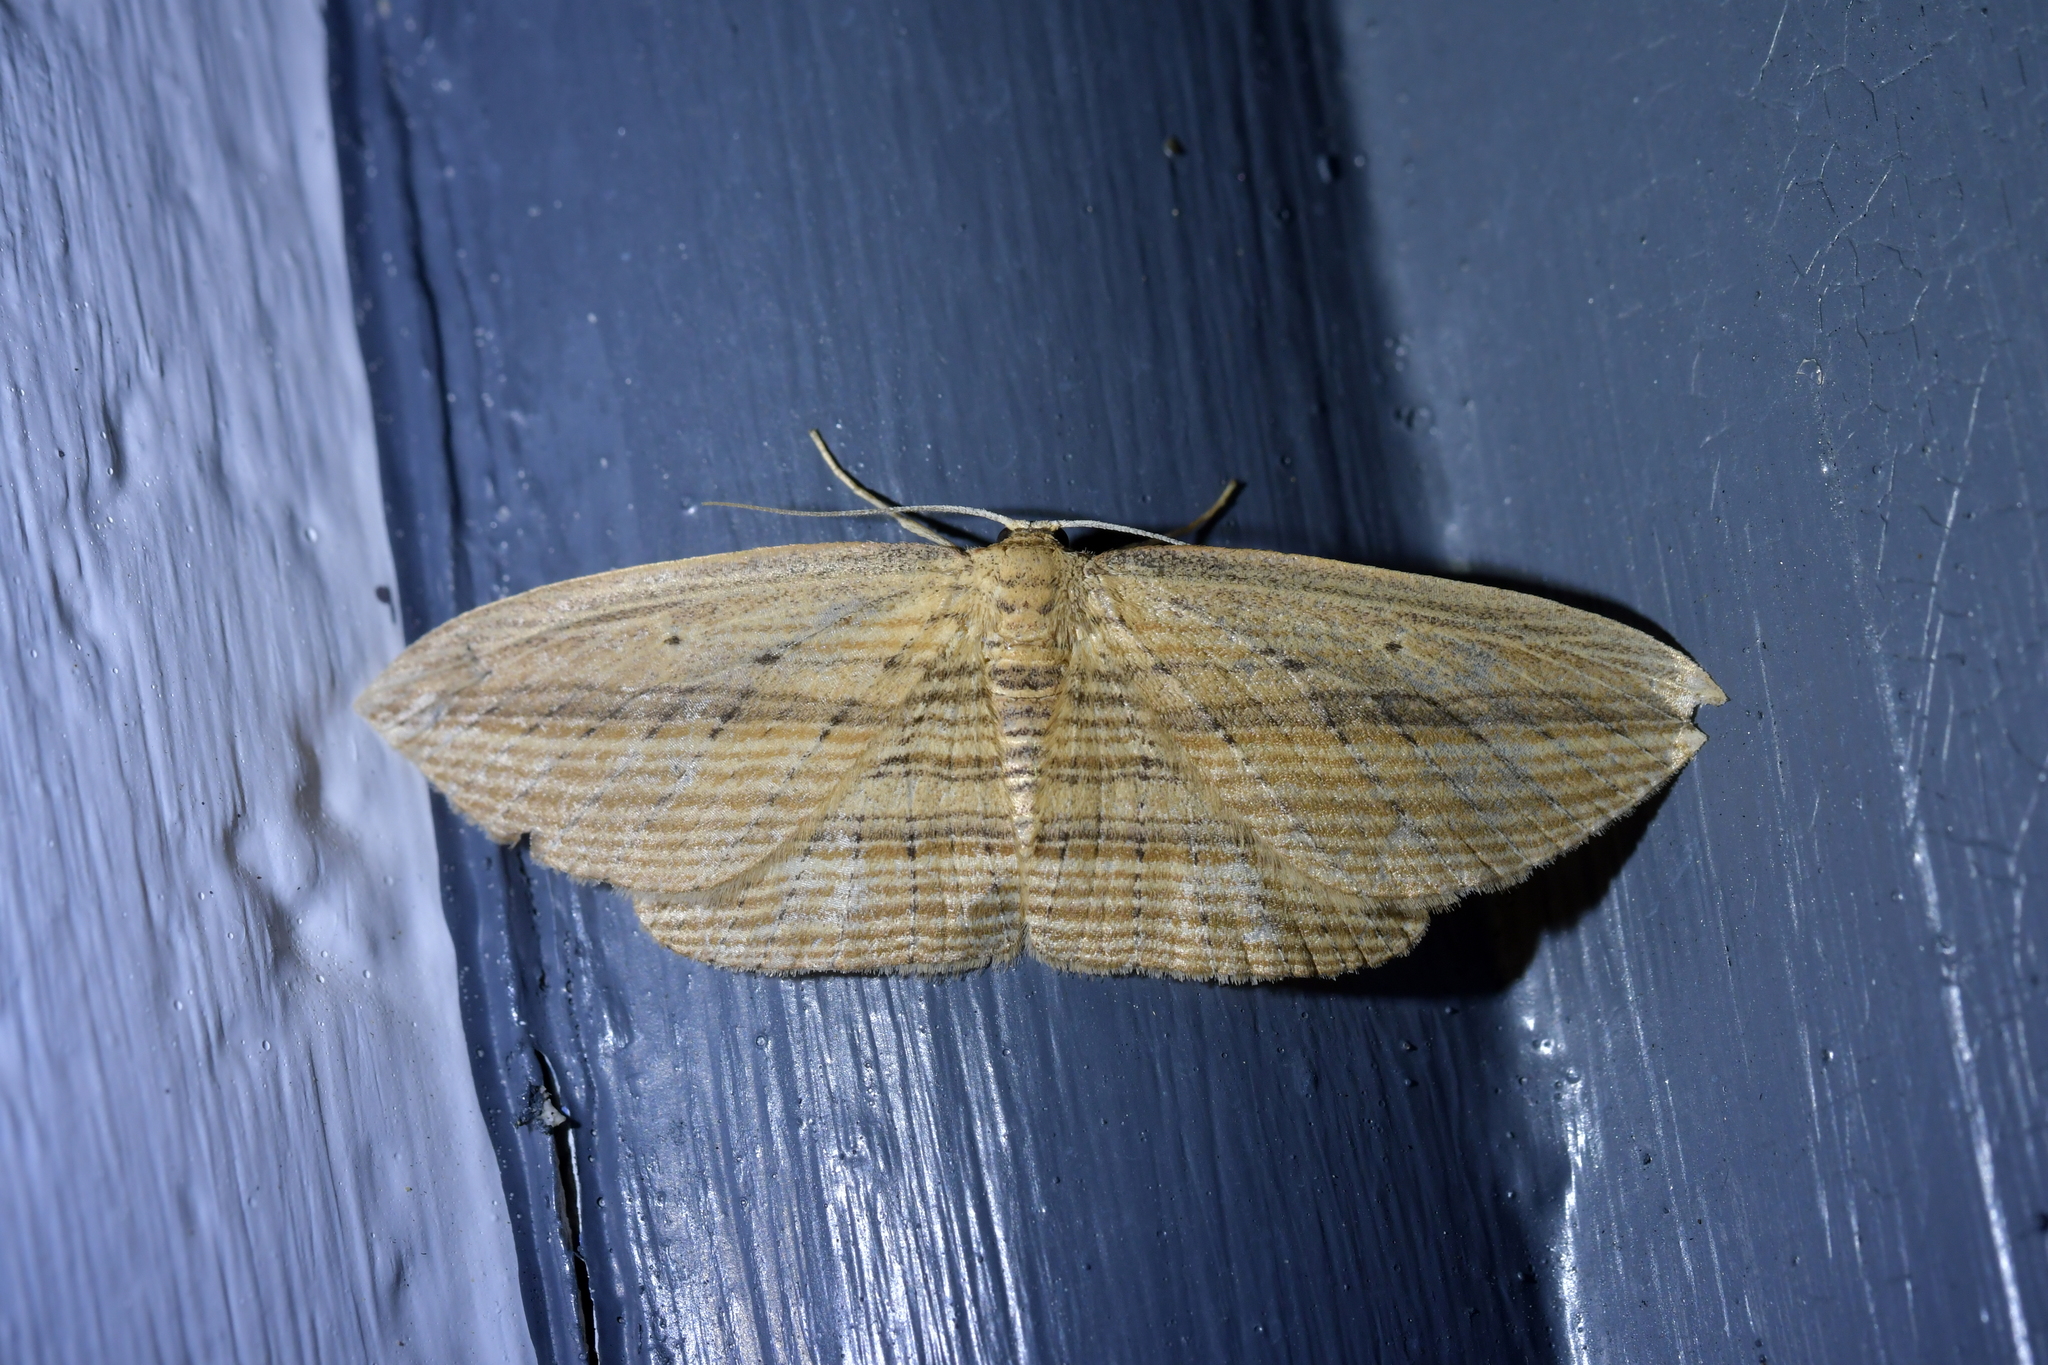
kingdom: Animalia
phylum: Arthropoda
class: Insecta
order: Lepidoptera
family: Geometridae
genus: Epiphryne
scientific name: Epiphryne verriculata
